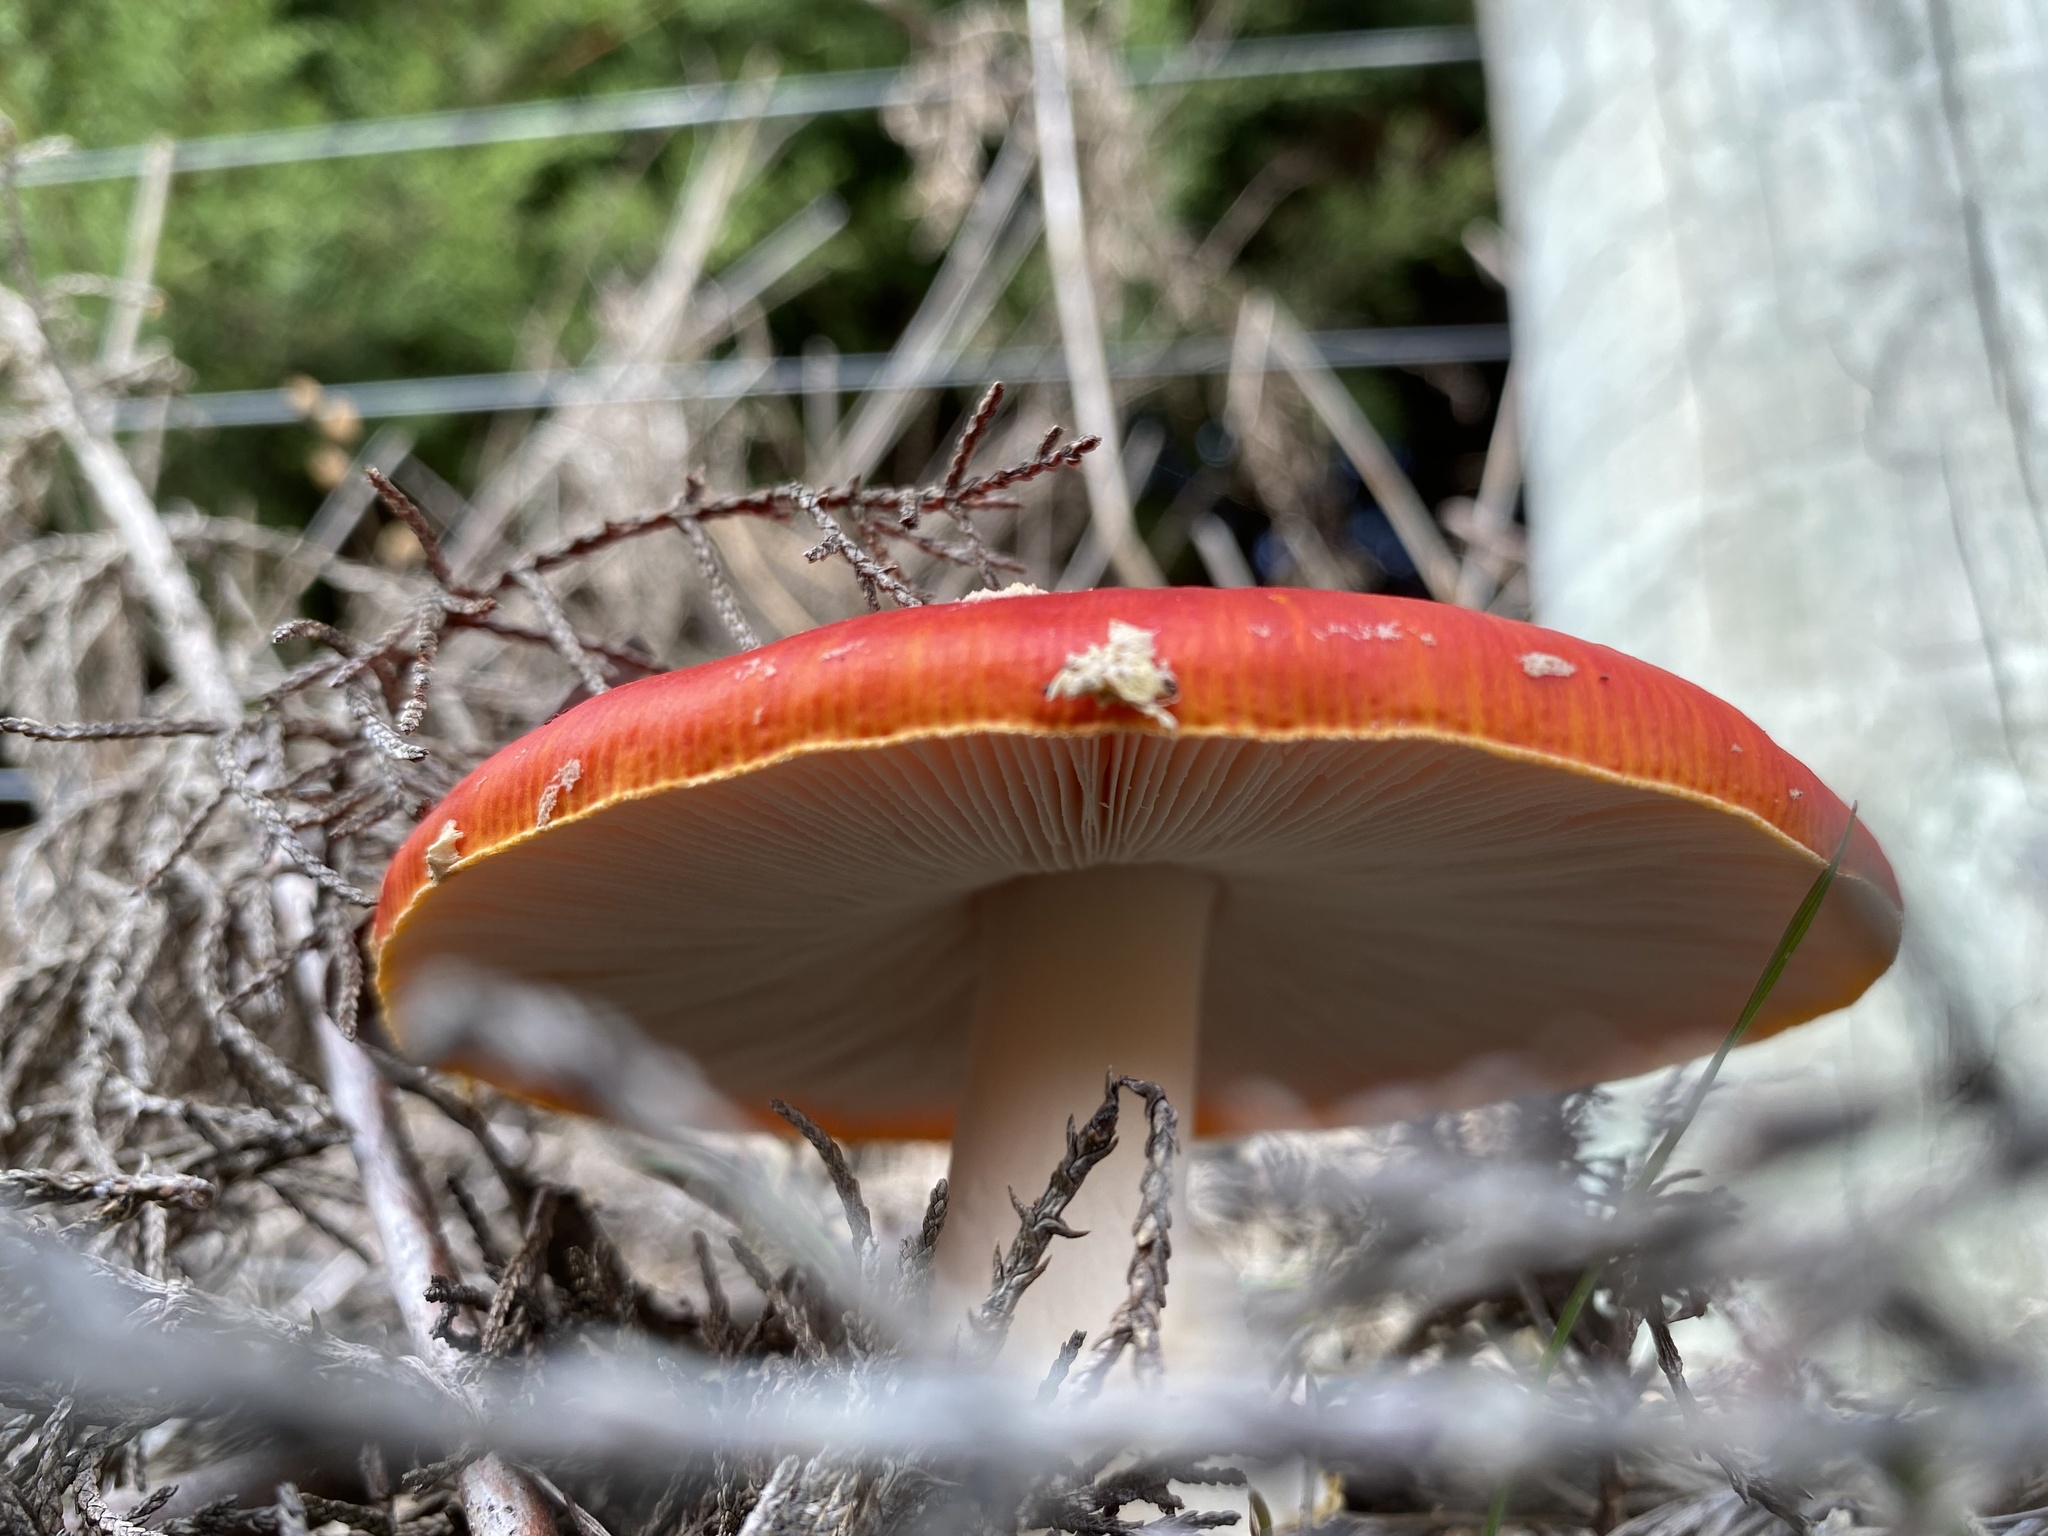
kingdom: Fungi
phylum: Basidiomycota
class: Agaricomycetes
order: Agaricales
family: Amanitaceae
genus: Amanita
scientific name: Amanita muscaria
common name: Fly agaric
